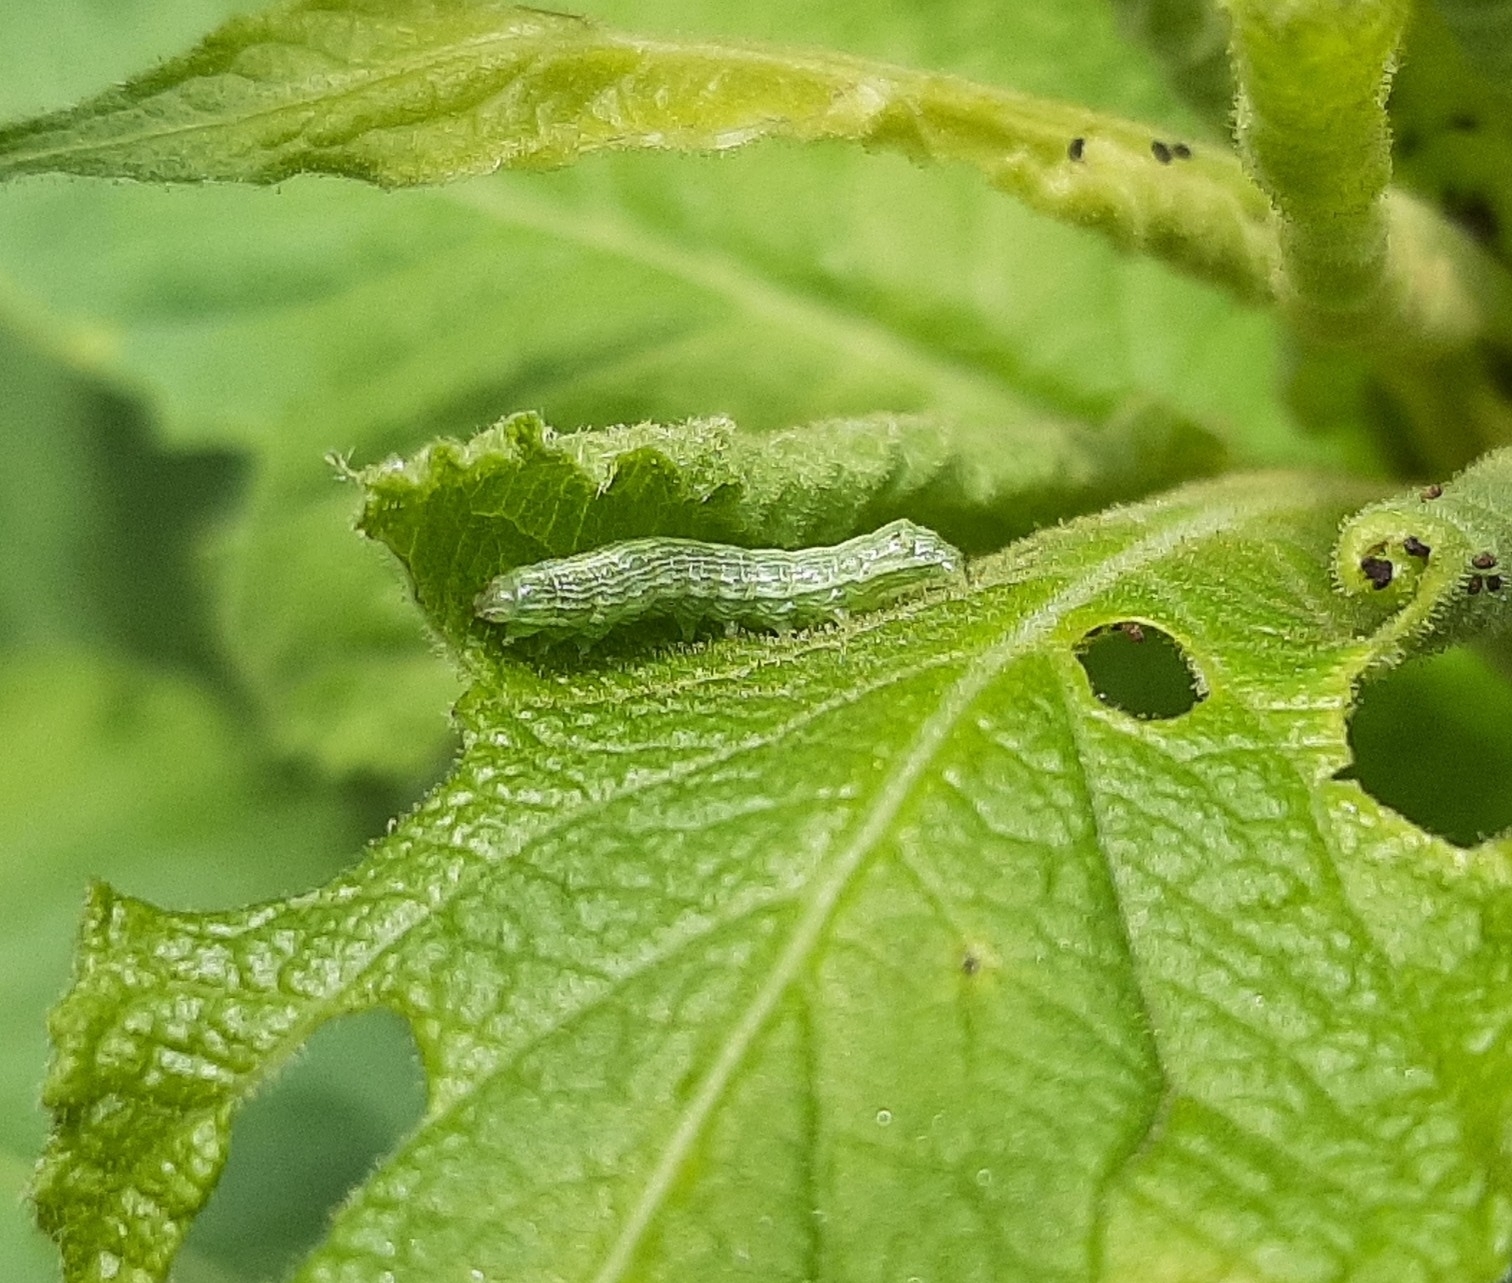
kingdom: Animalia
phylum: Arthropoda
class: Insecta
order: Lepidoptera
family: Noctuidae
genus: Sympistis
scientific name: Sympistis forbesi
